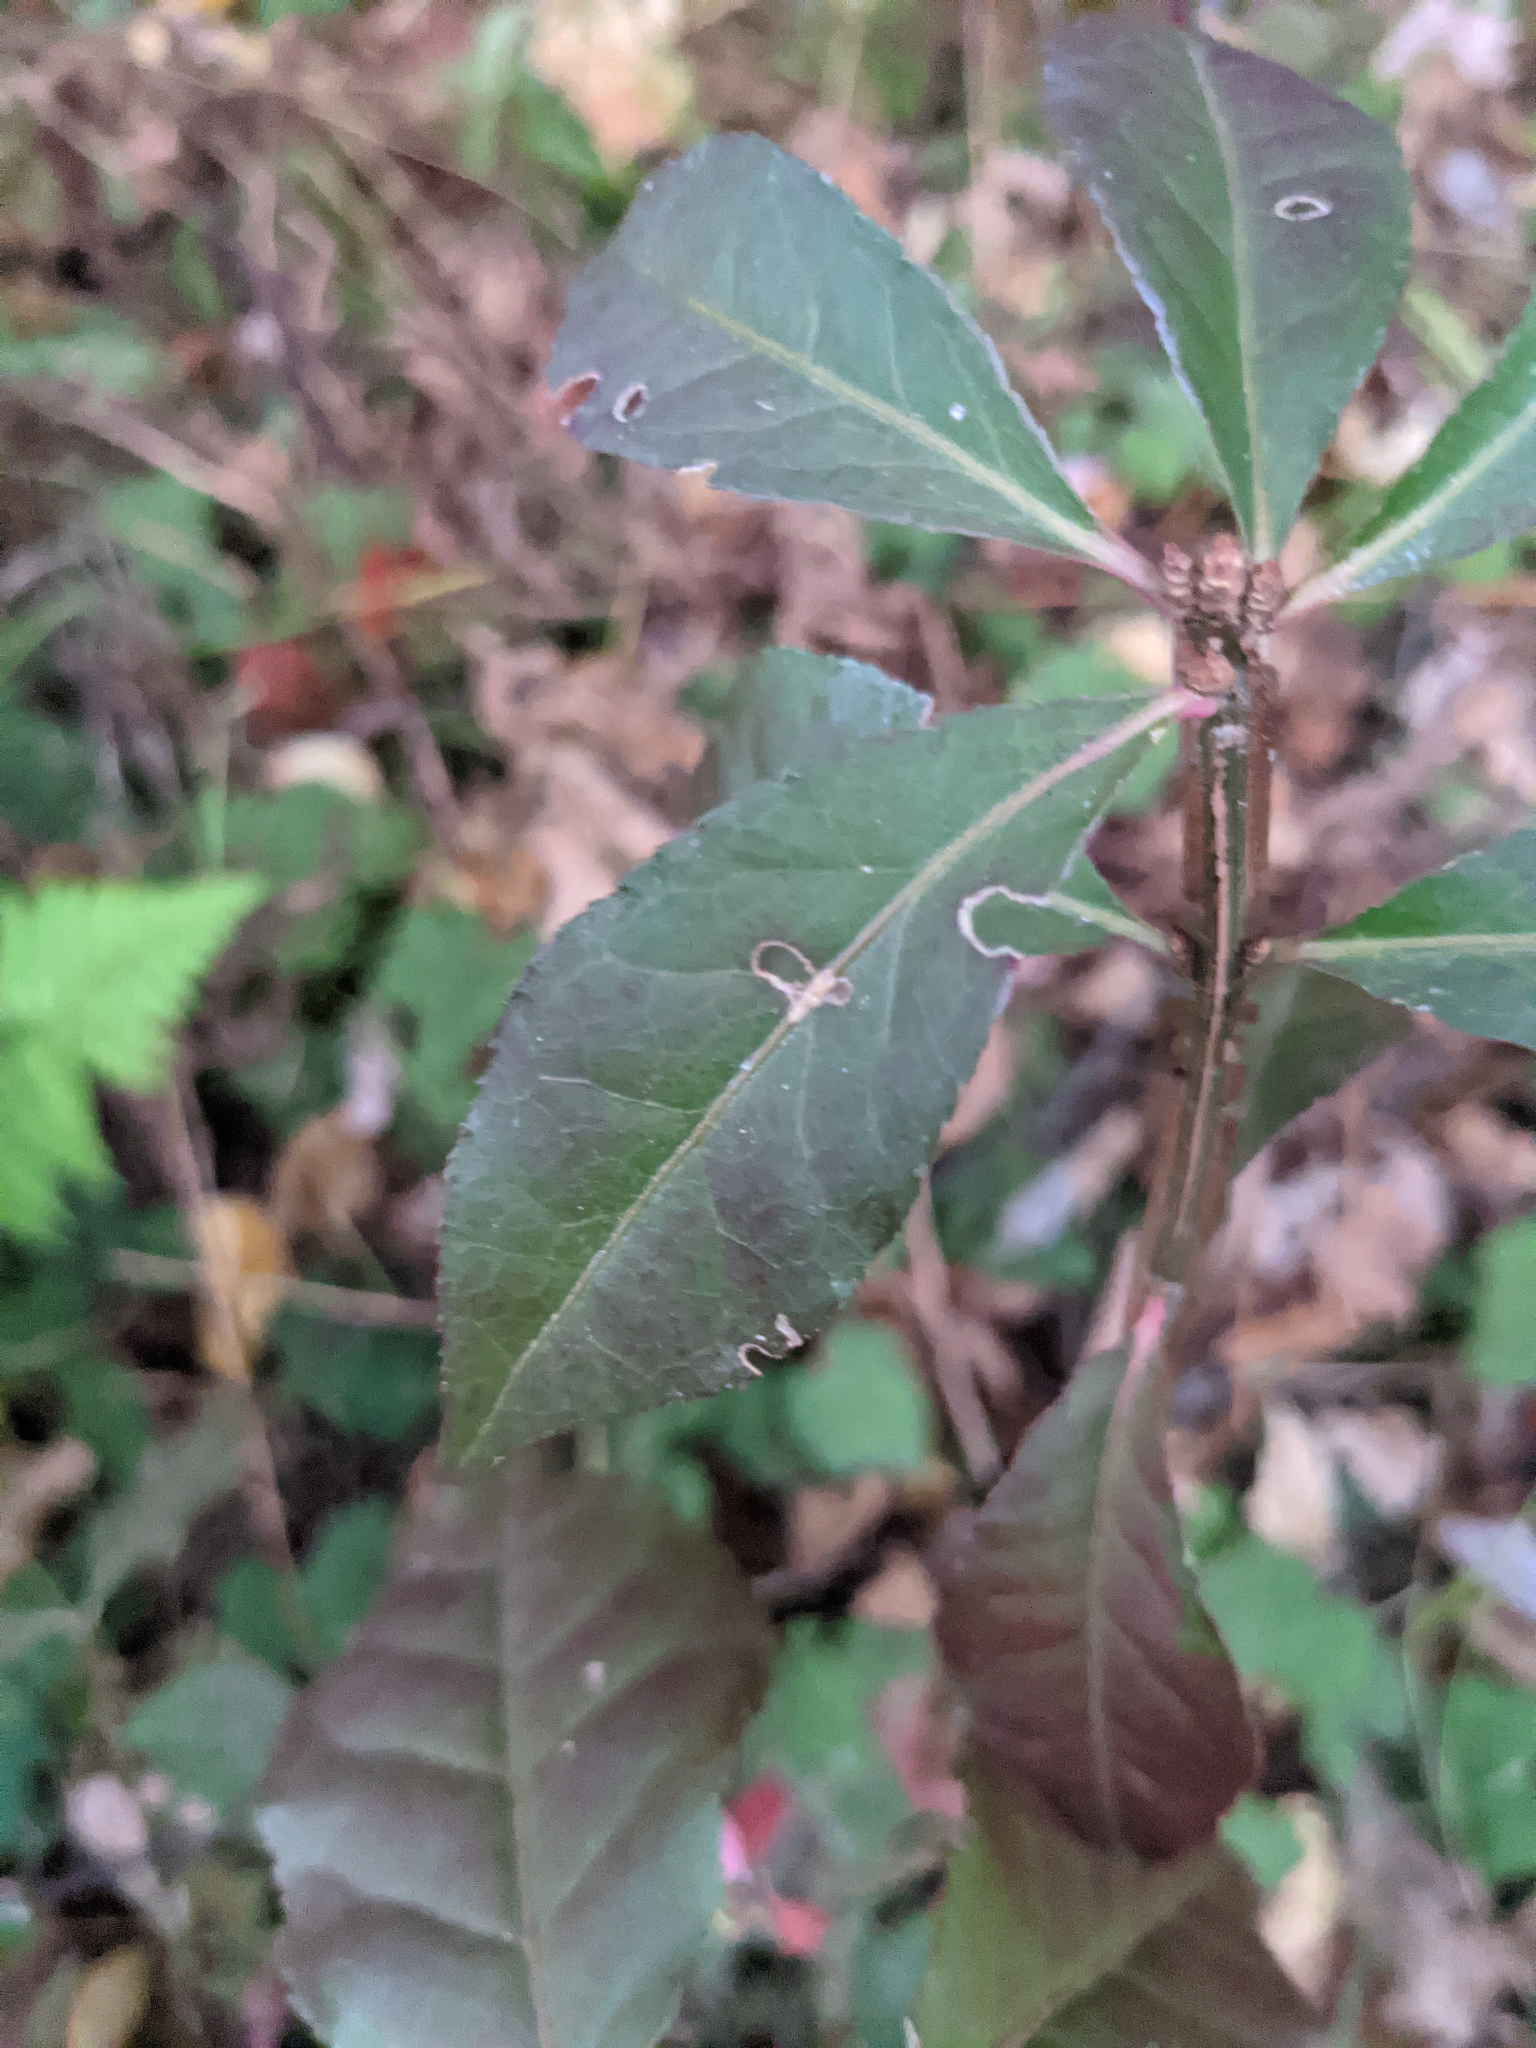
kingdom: Plantae
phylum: Tracheophyta
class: Magnoliopsida
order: Celastrales
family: Celastraceae
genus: Euonymus
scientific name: Euonymus alatus
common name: Winged euonymus
